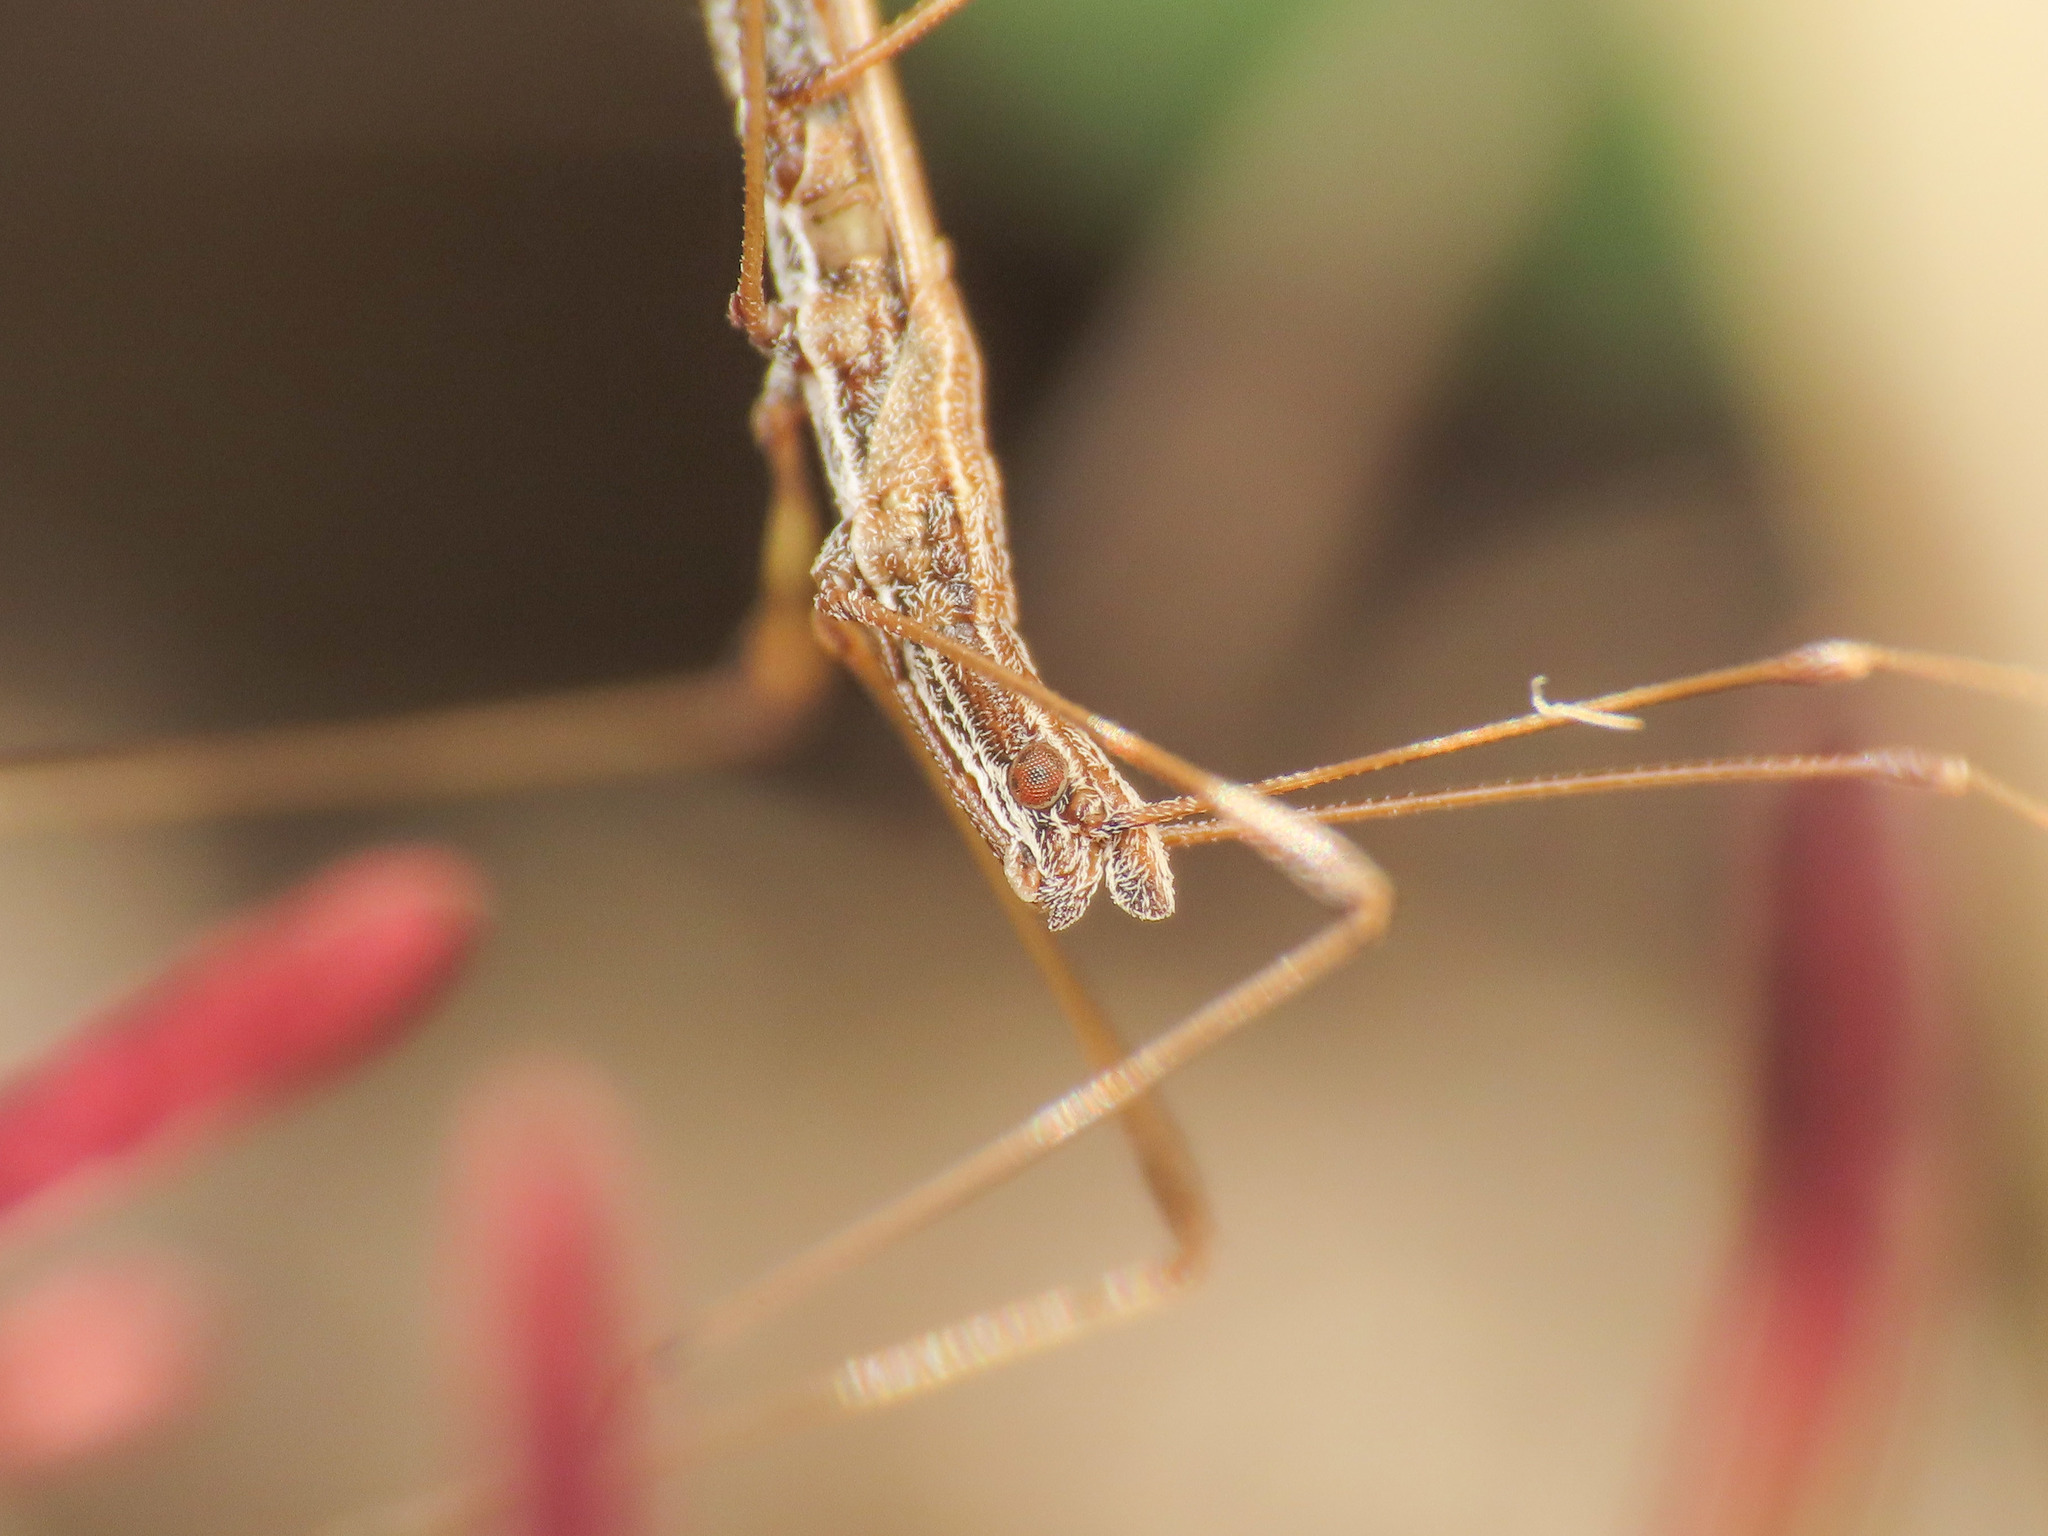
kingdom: Animalia
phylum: Arthropoda
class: Insecta
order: Hemiptera
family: Berytidae
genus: Neides
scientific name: Neides tipularius
